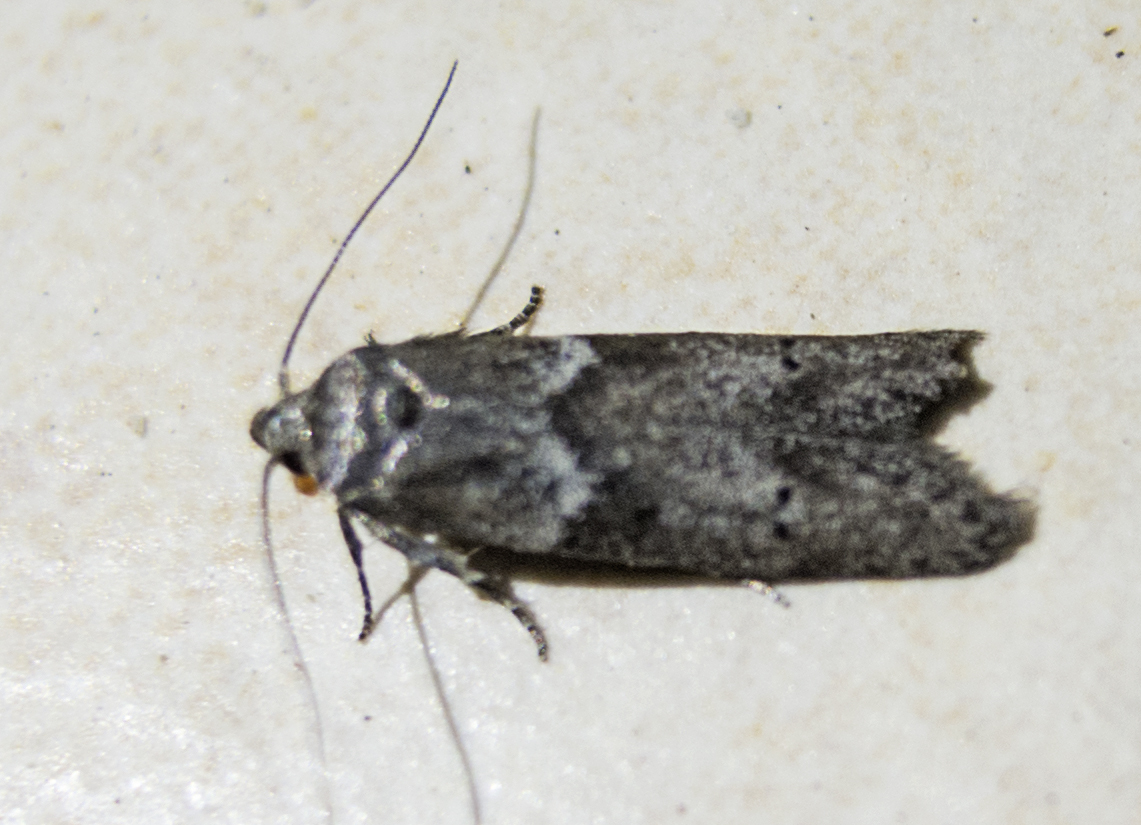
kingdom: Animalia
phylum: Arthropoda
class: Insecta
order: Lepidoptera
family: Blastobasidae
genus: Blastobasis
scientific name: Blastobasis glandulella
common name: Acorn moth
